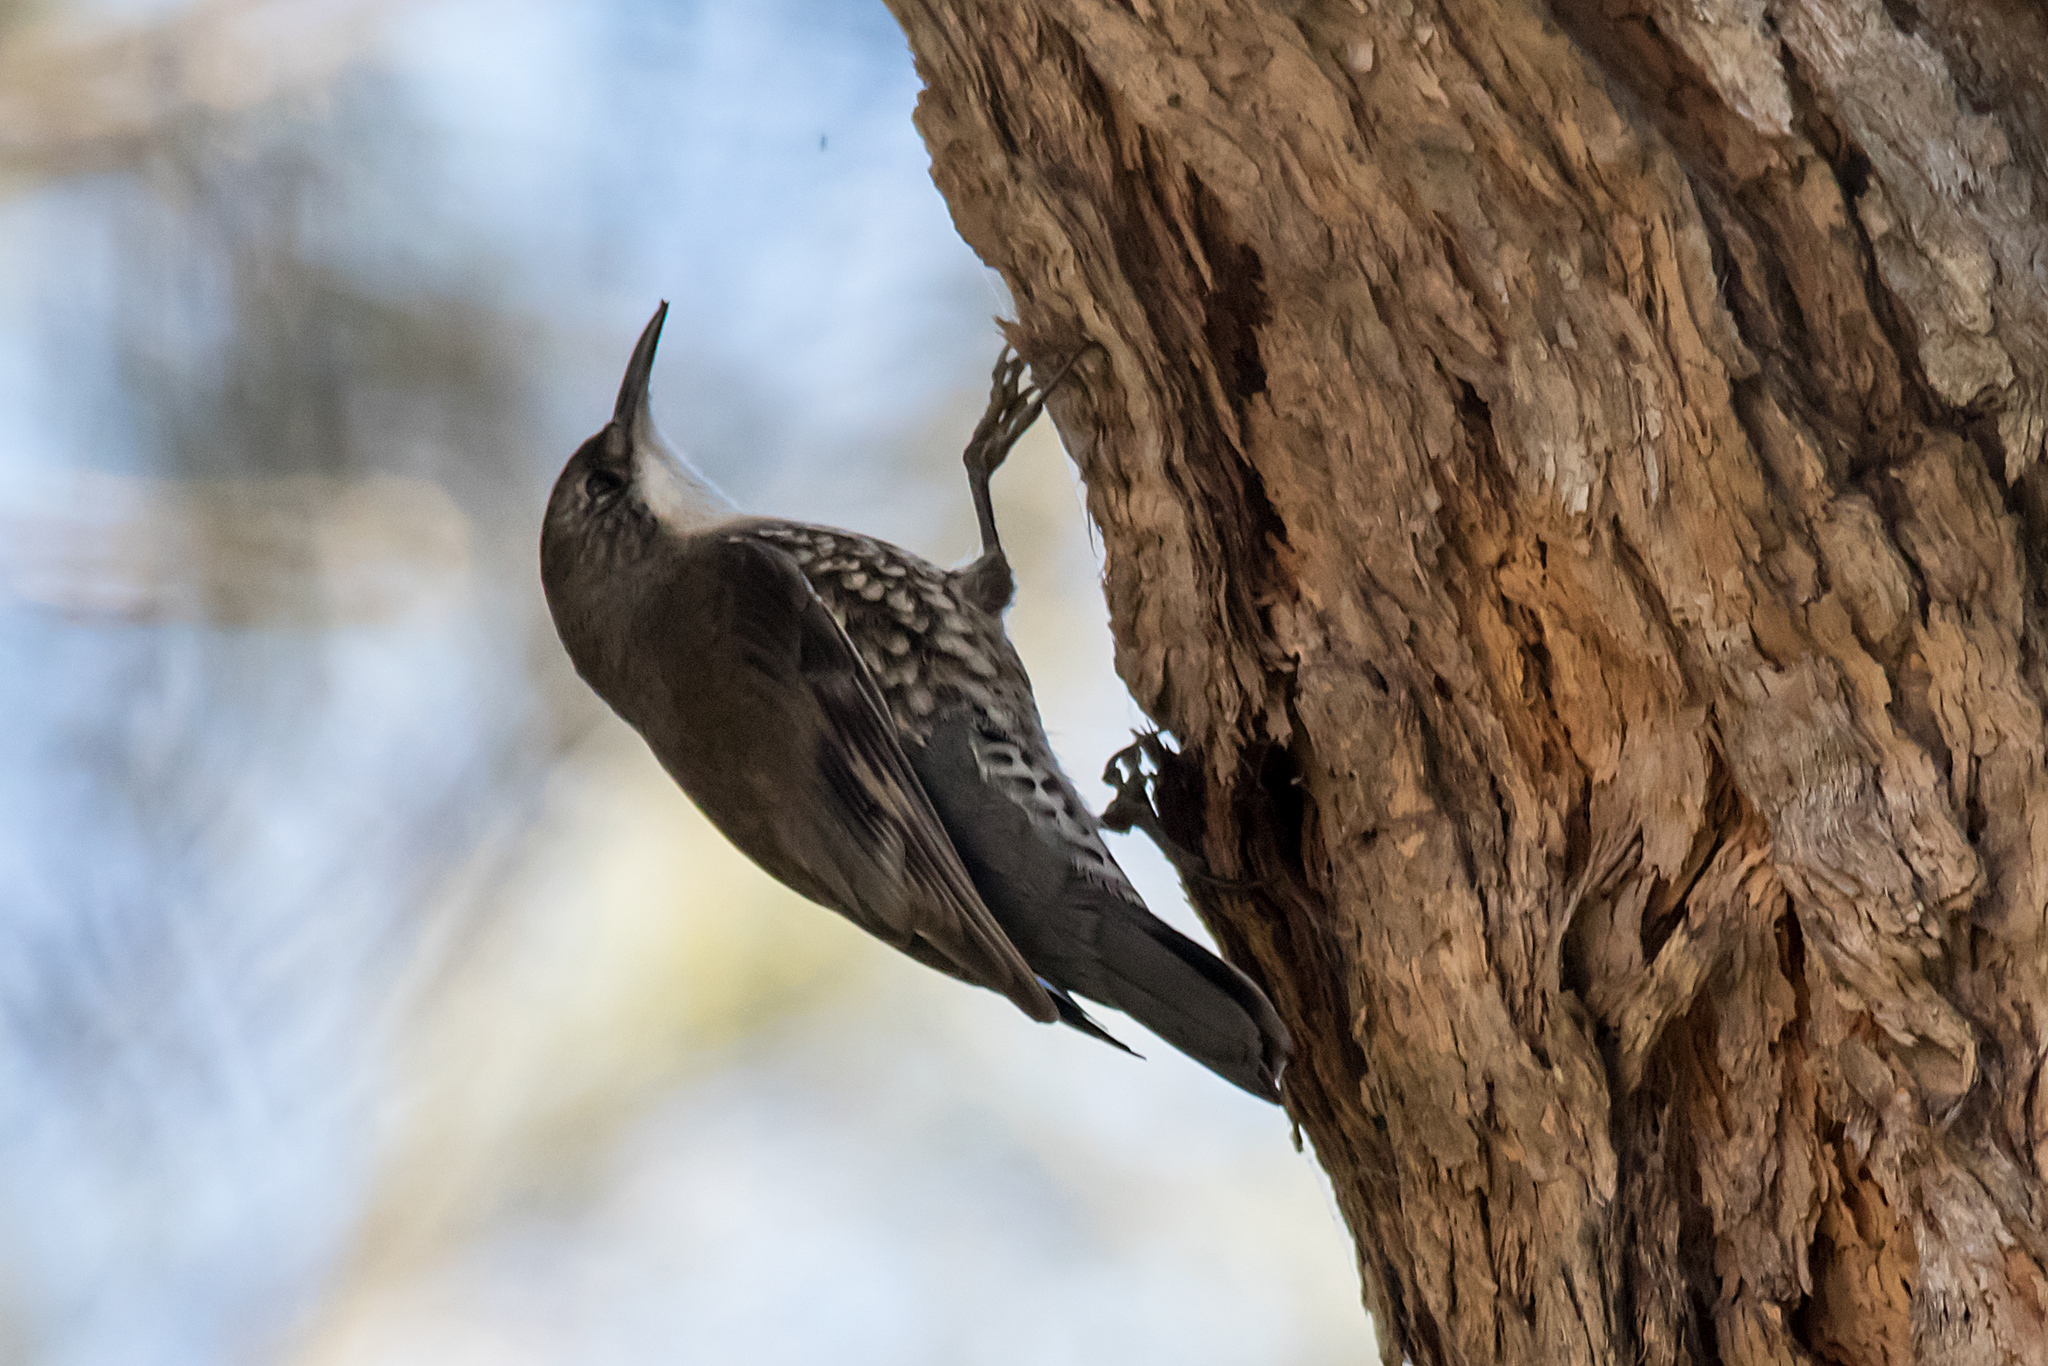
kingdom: Animalia
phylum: Chordata
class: Aves
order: Passeriformes
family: Climacteridae
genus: Cormobates
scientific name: Cormobates leucophaea
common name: White-throated treecreeper
